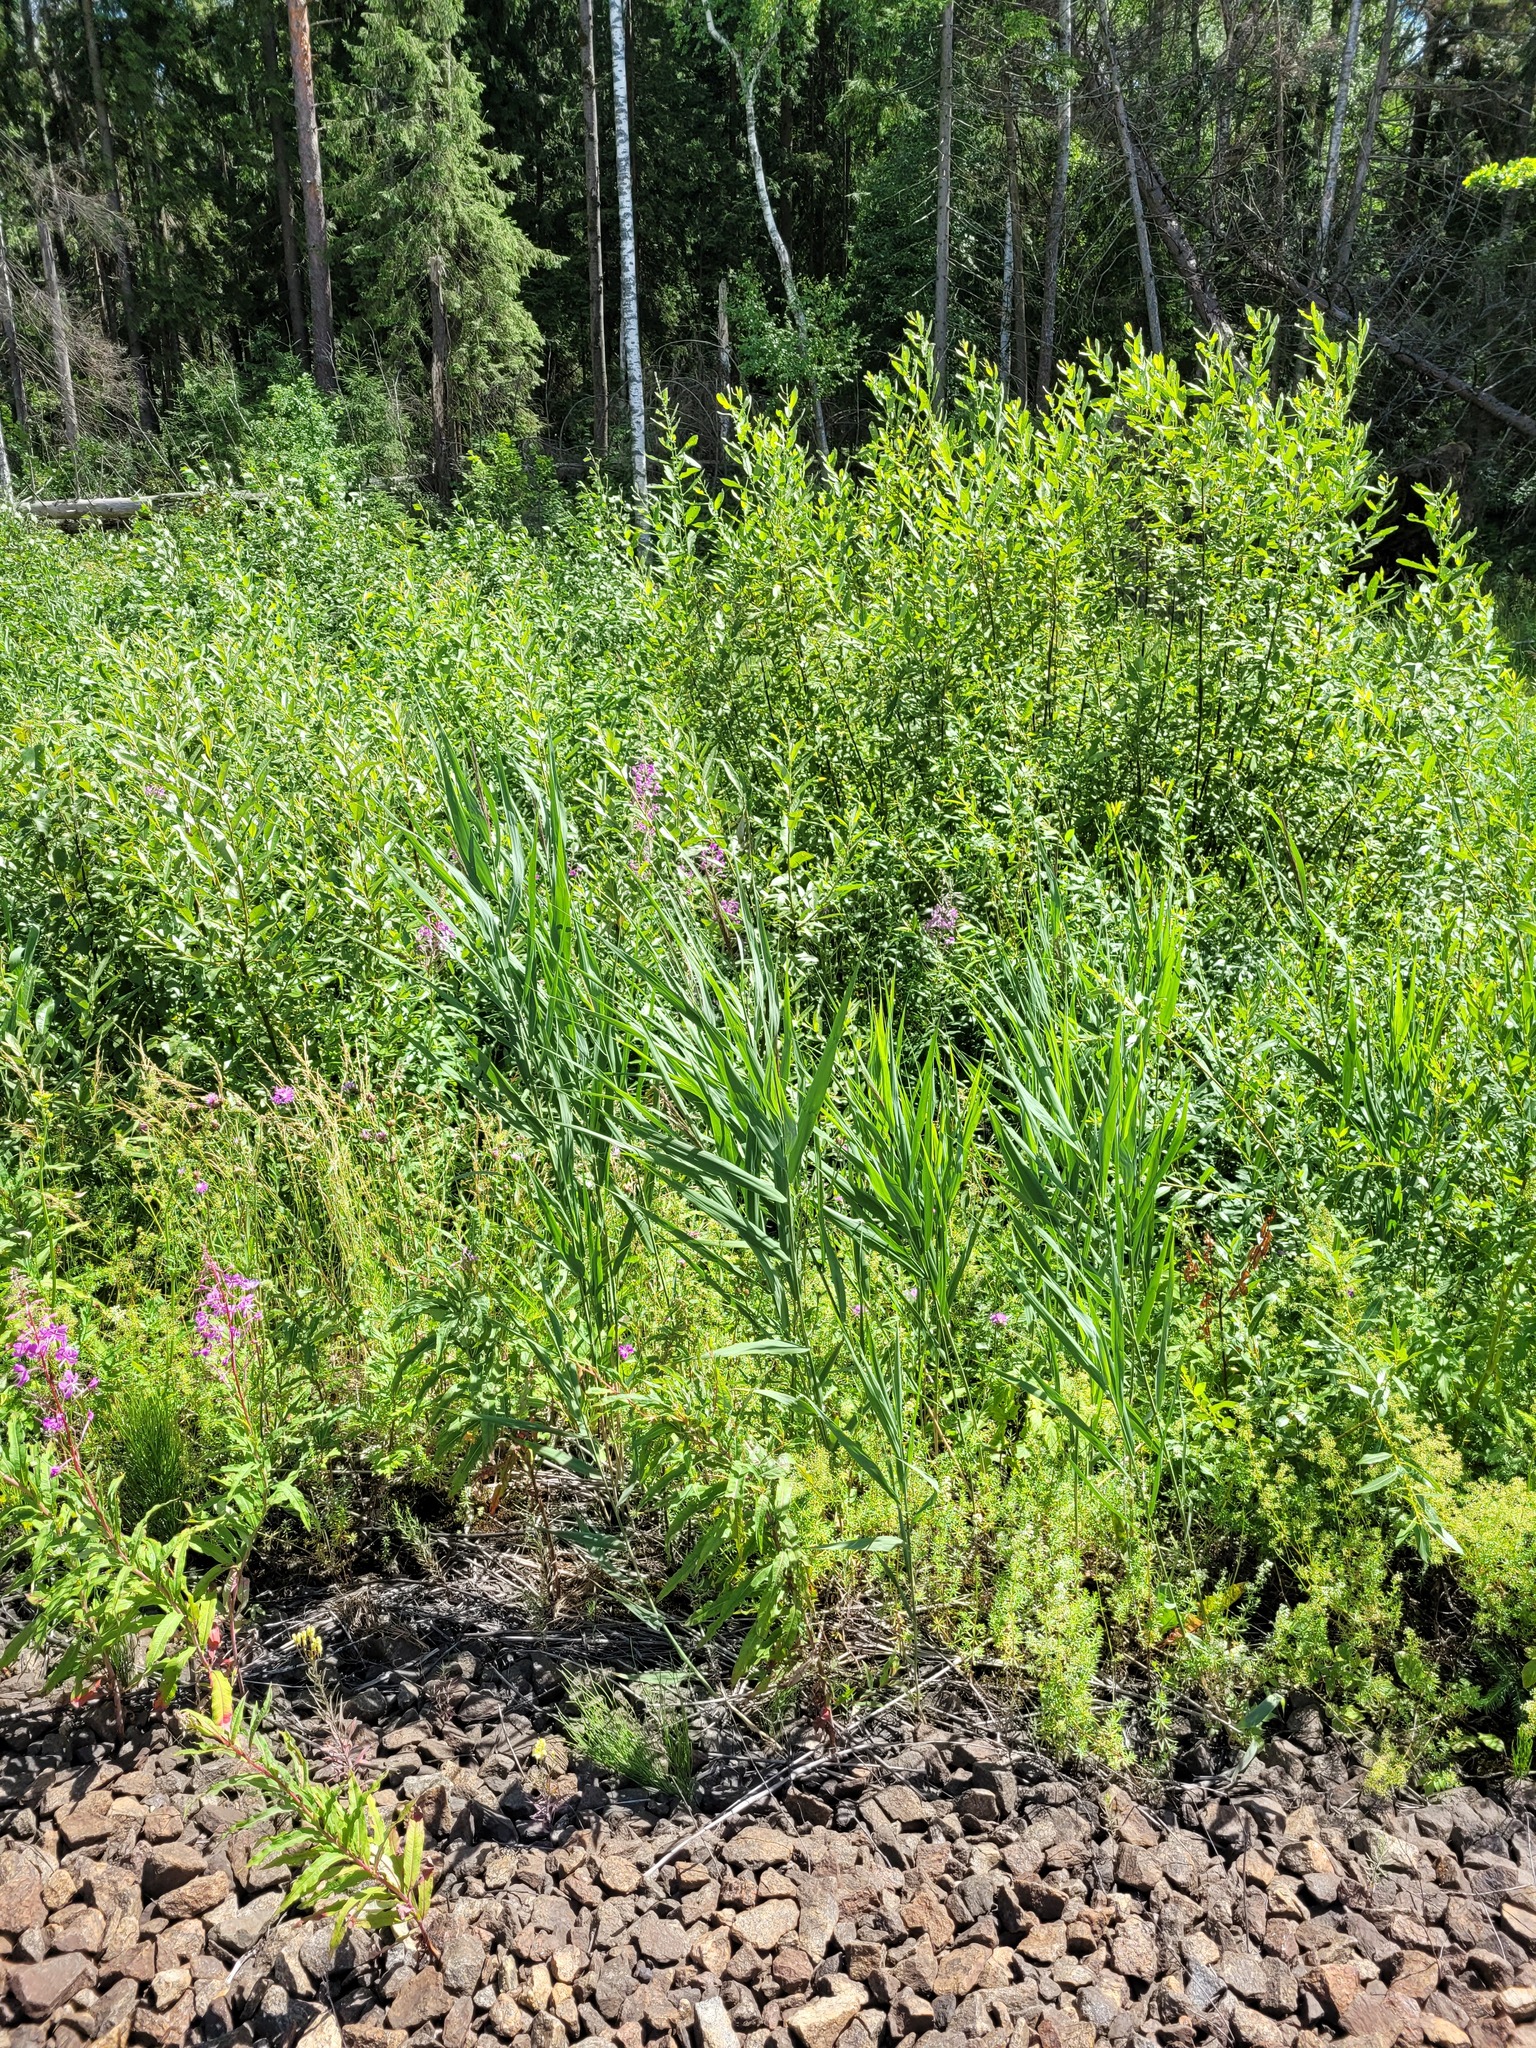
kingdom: Plantae
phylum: Tracheophyta
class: Liliopsida
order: Poales
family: Poaceae
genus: Phragmites
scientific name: Phragmites australis
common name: Common reed
